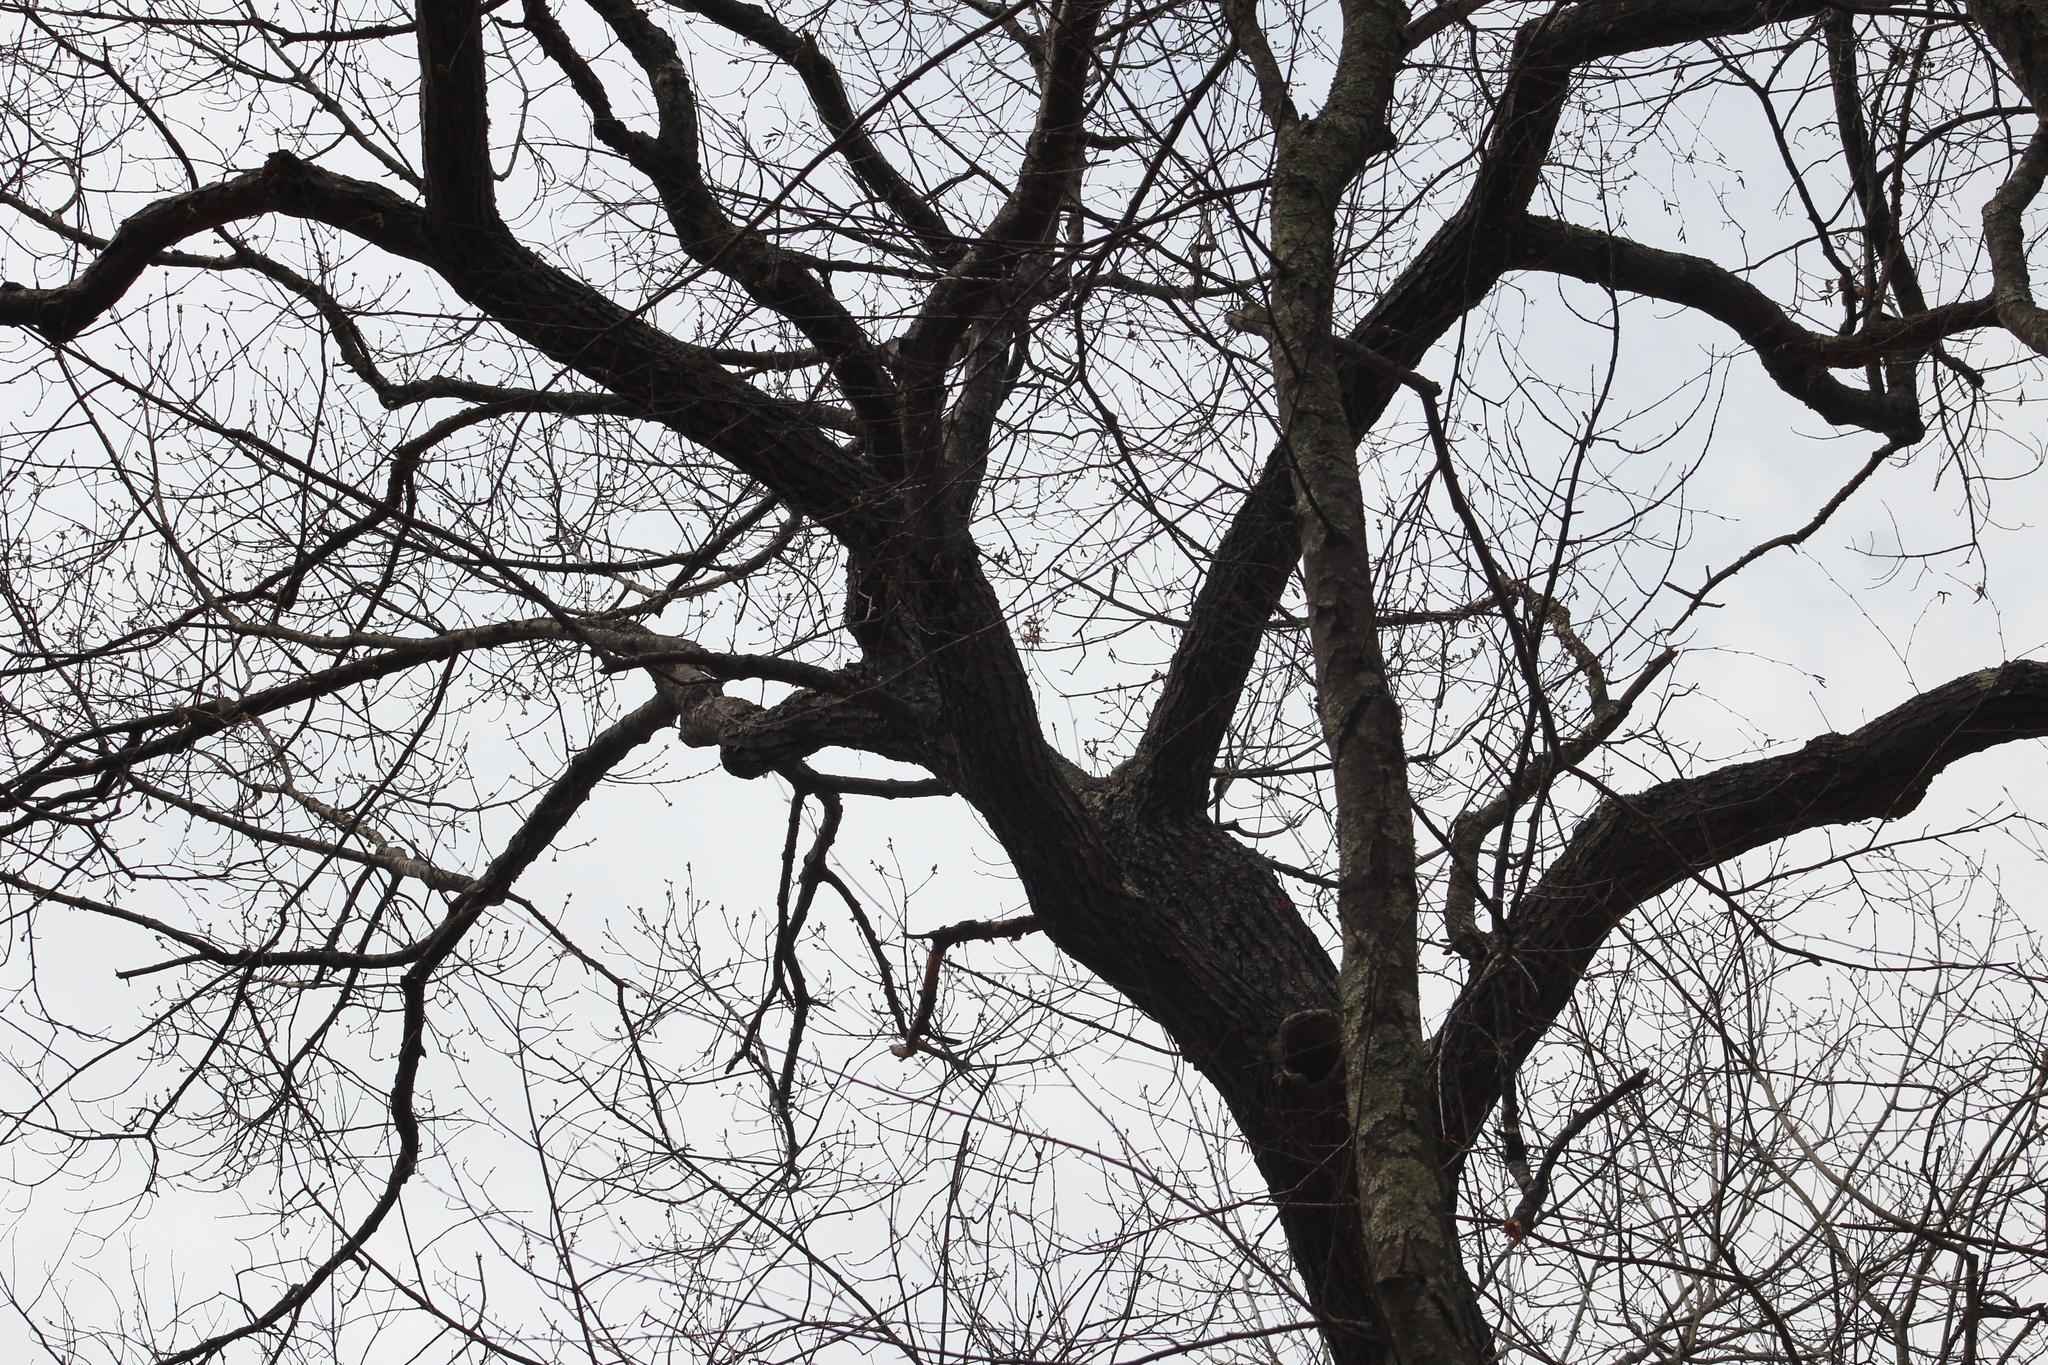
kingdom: Plantae
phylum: Tracheophyta
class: Magnoliopsida
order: Fagales
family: Fagaceae
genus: Quercus
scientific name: Quercus velutina
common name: Black oak
